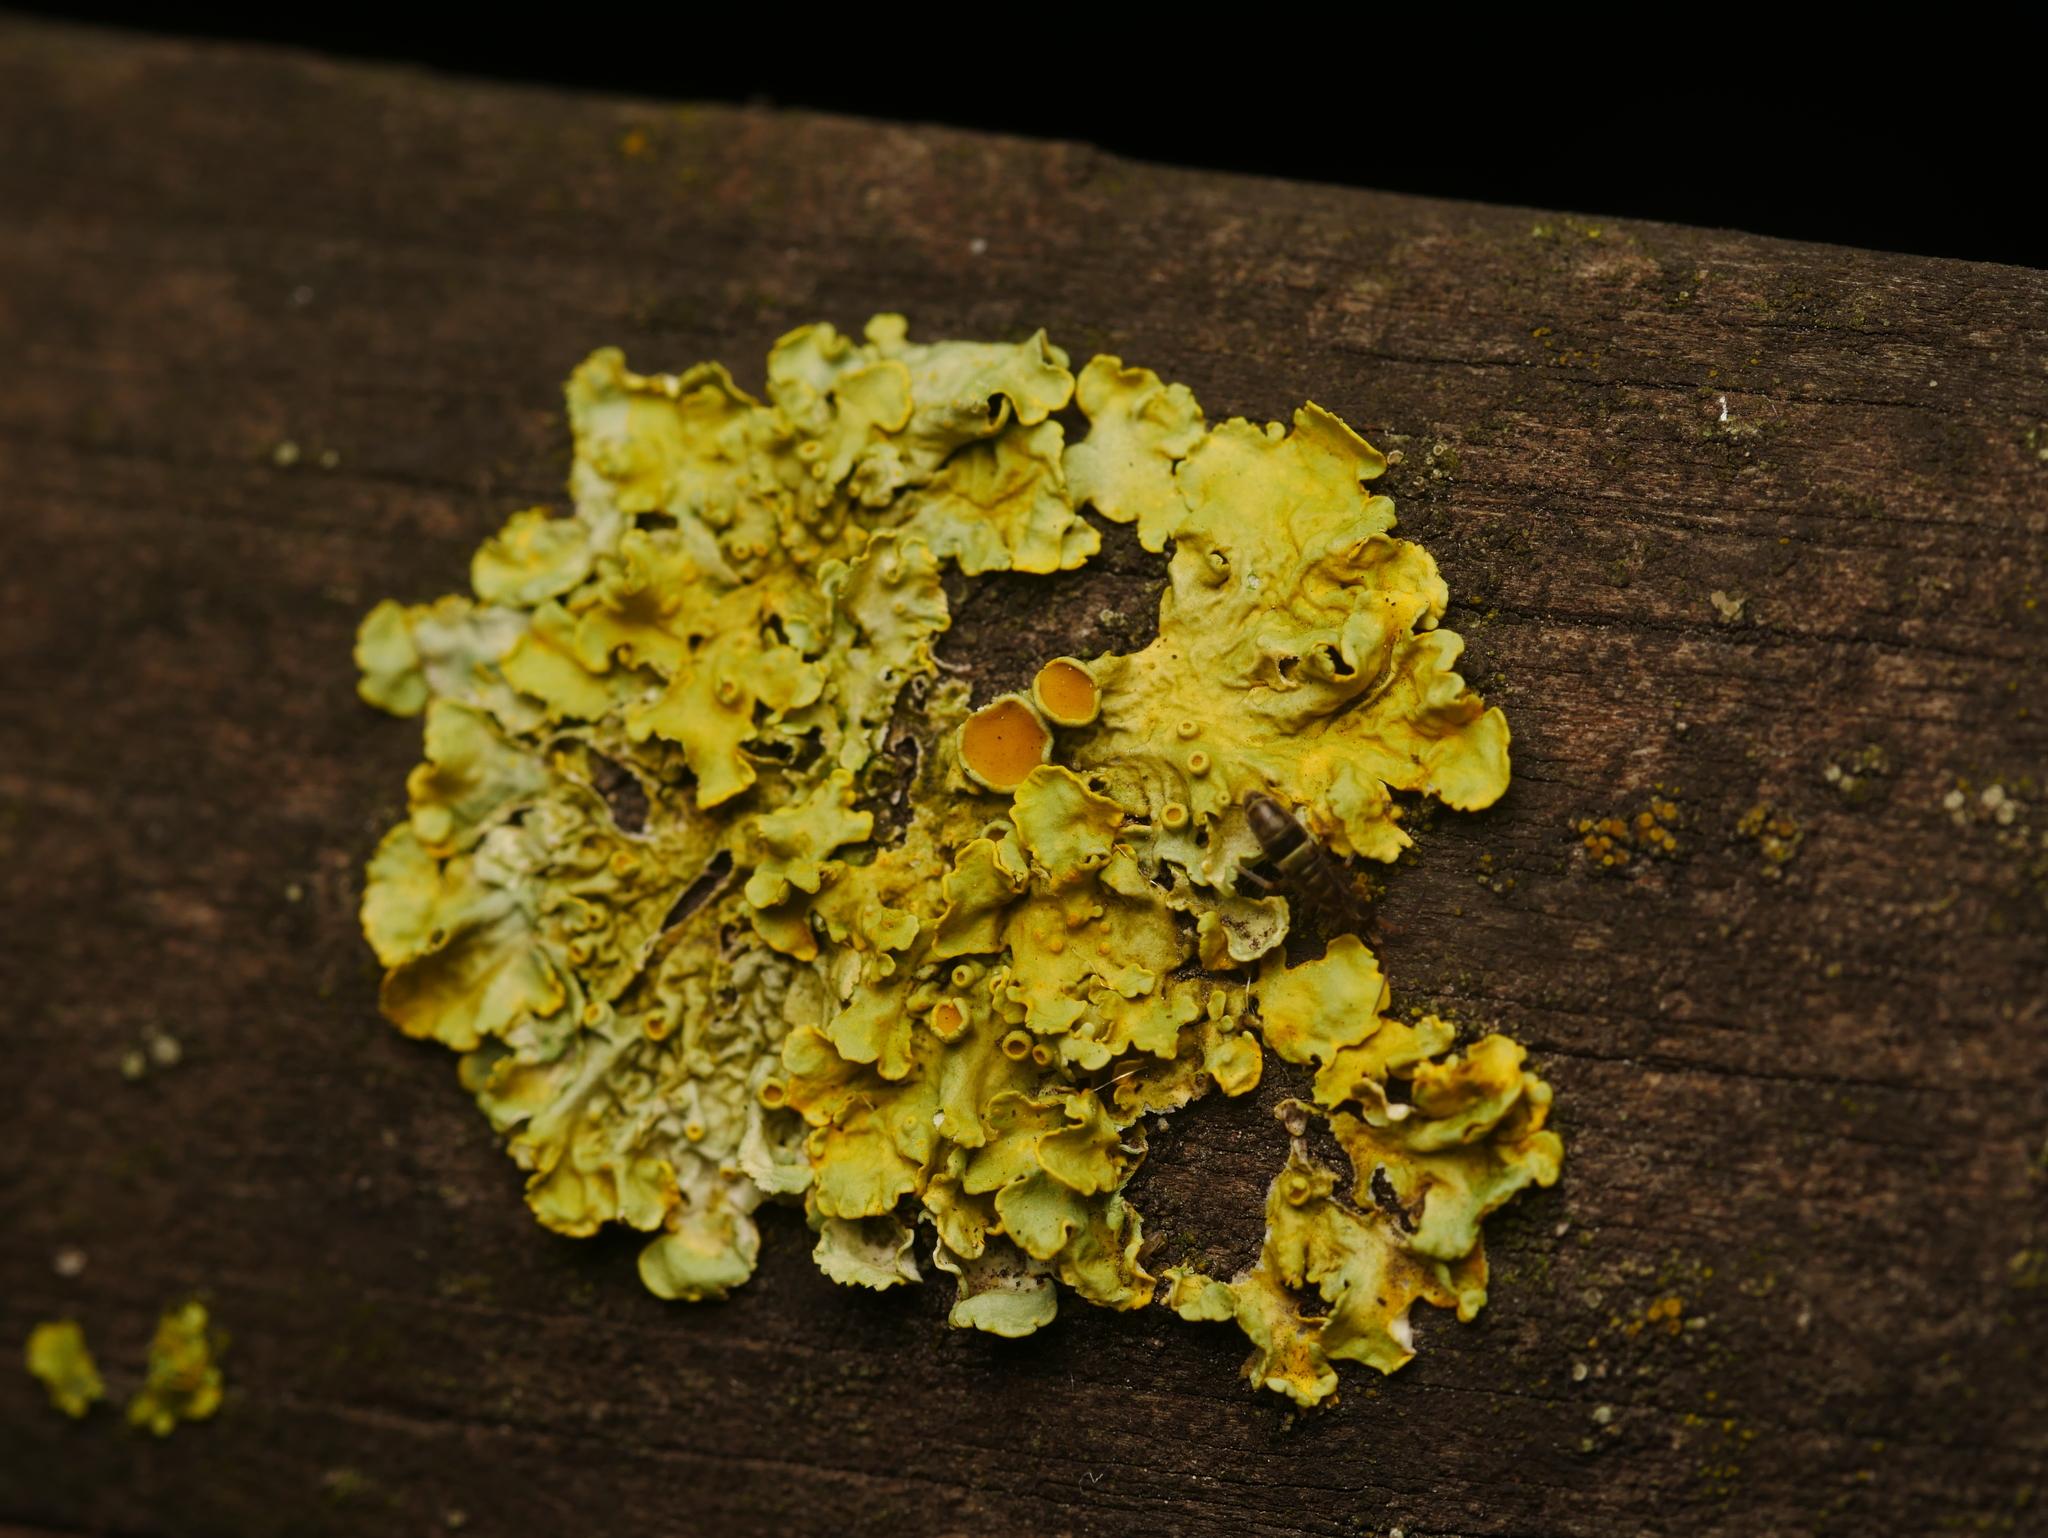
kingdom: Fungi
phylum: Ascomycota
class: Lecanoromycetes
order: Teloschistales
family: Teloschistaceae
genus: Xanthoria
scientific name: Xanthoria parietina
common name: Common orange lichen
